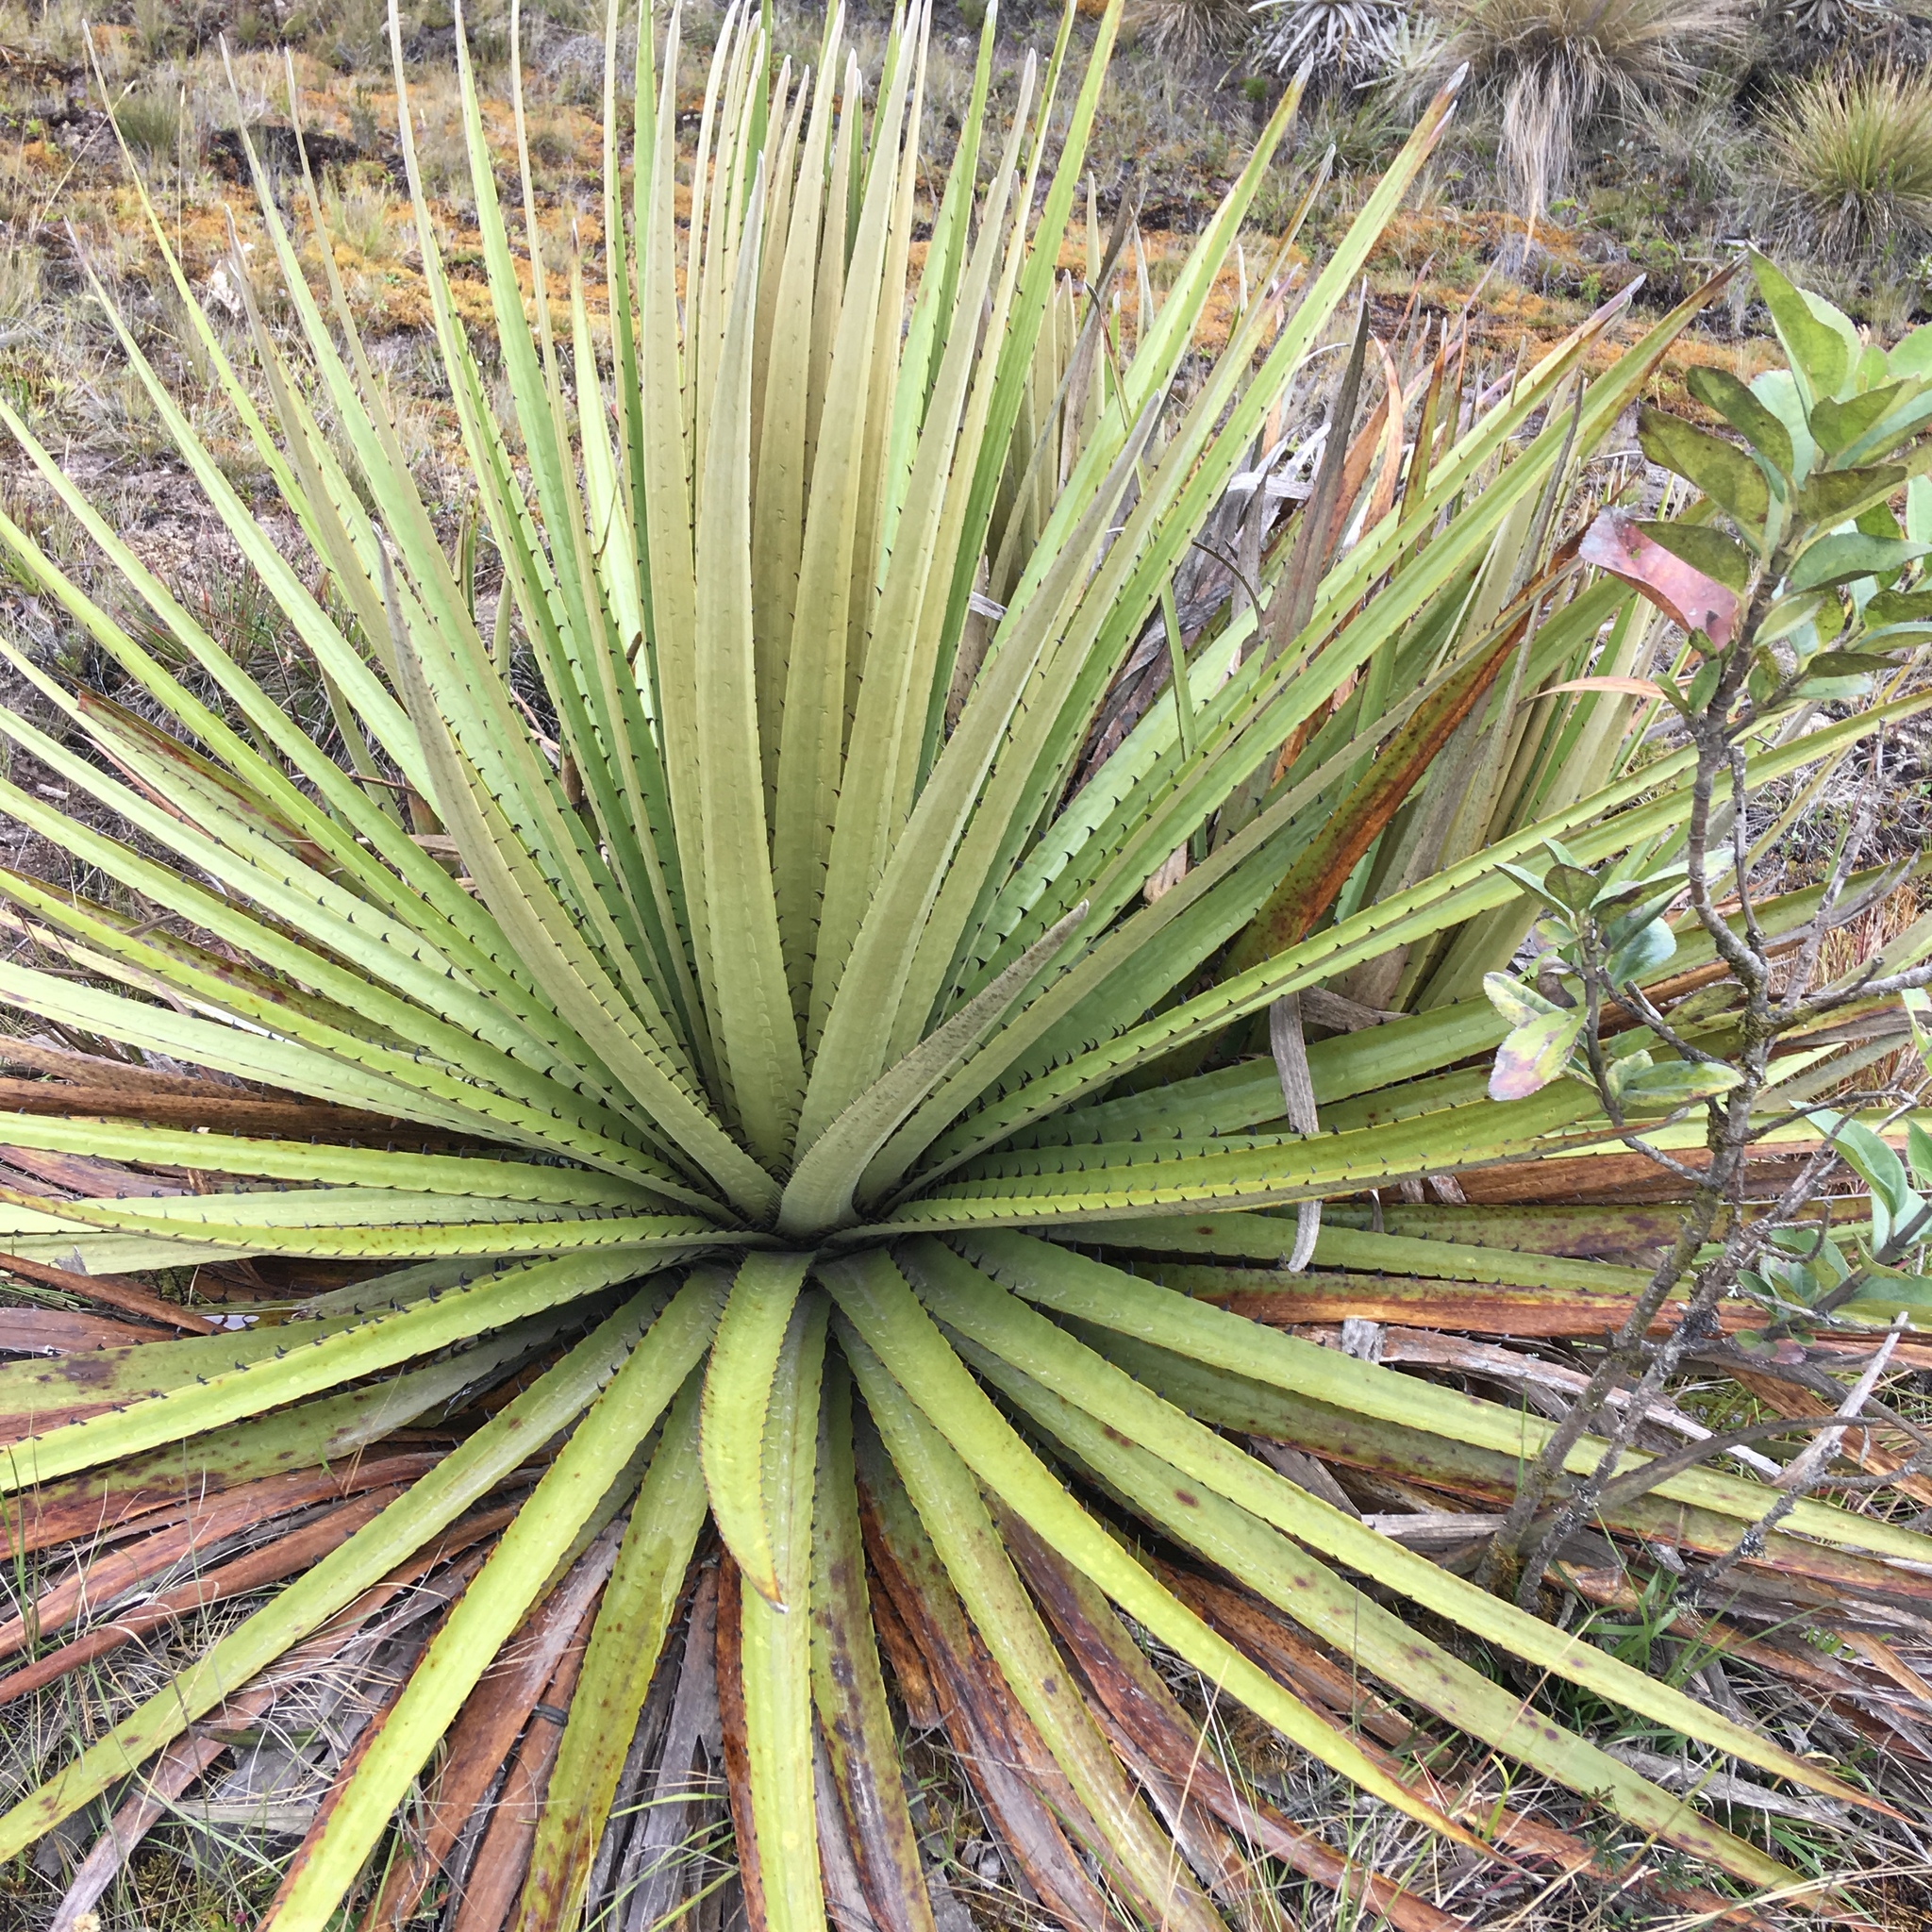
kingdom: Plantae
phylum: Tracheophyta
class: Liliopsida
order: Poales
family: Bromeliaceae
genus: Puya
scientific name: Puya goudotiana
